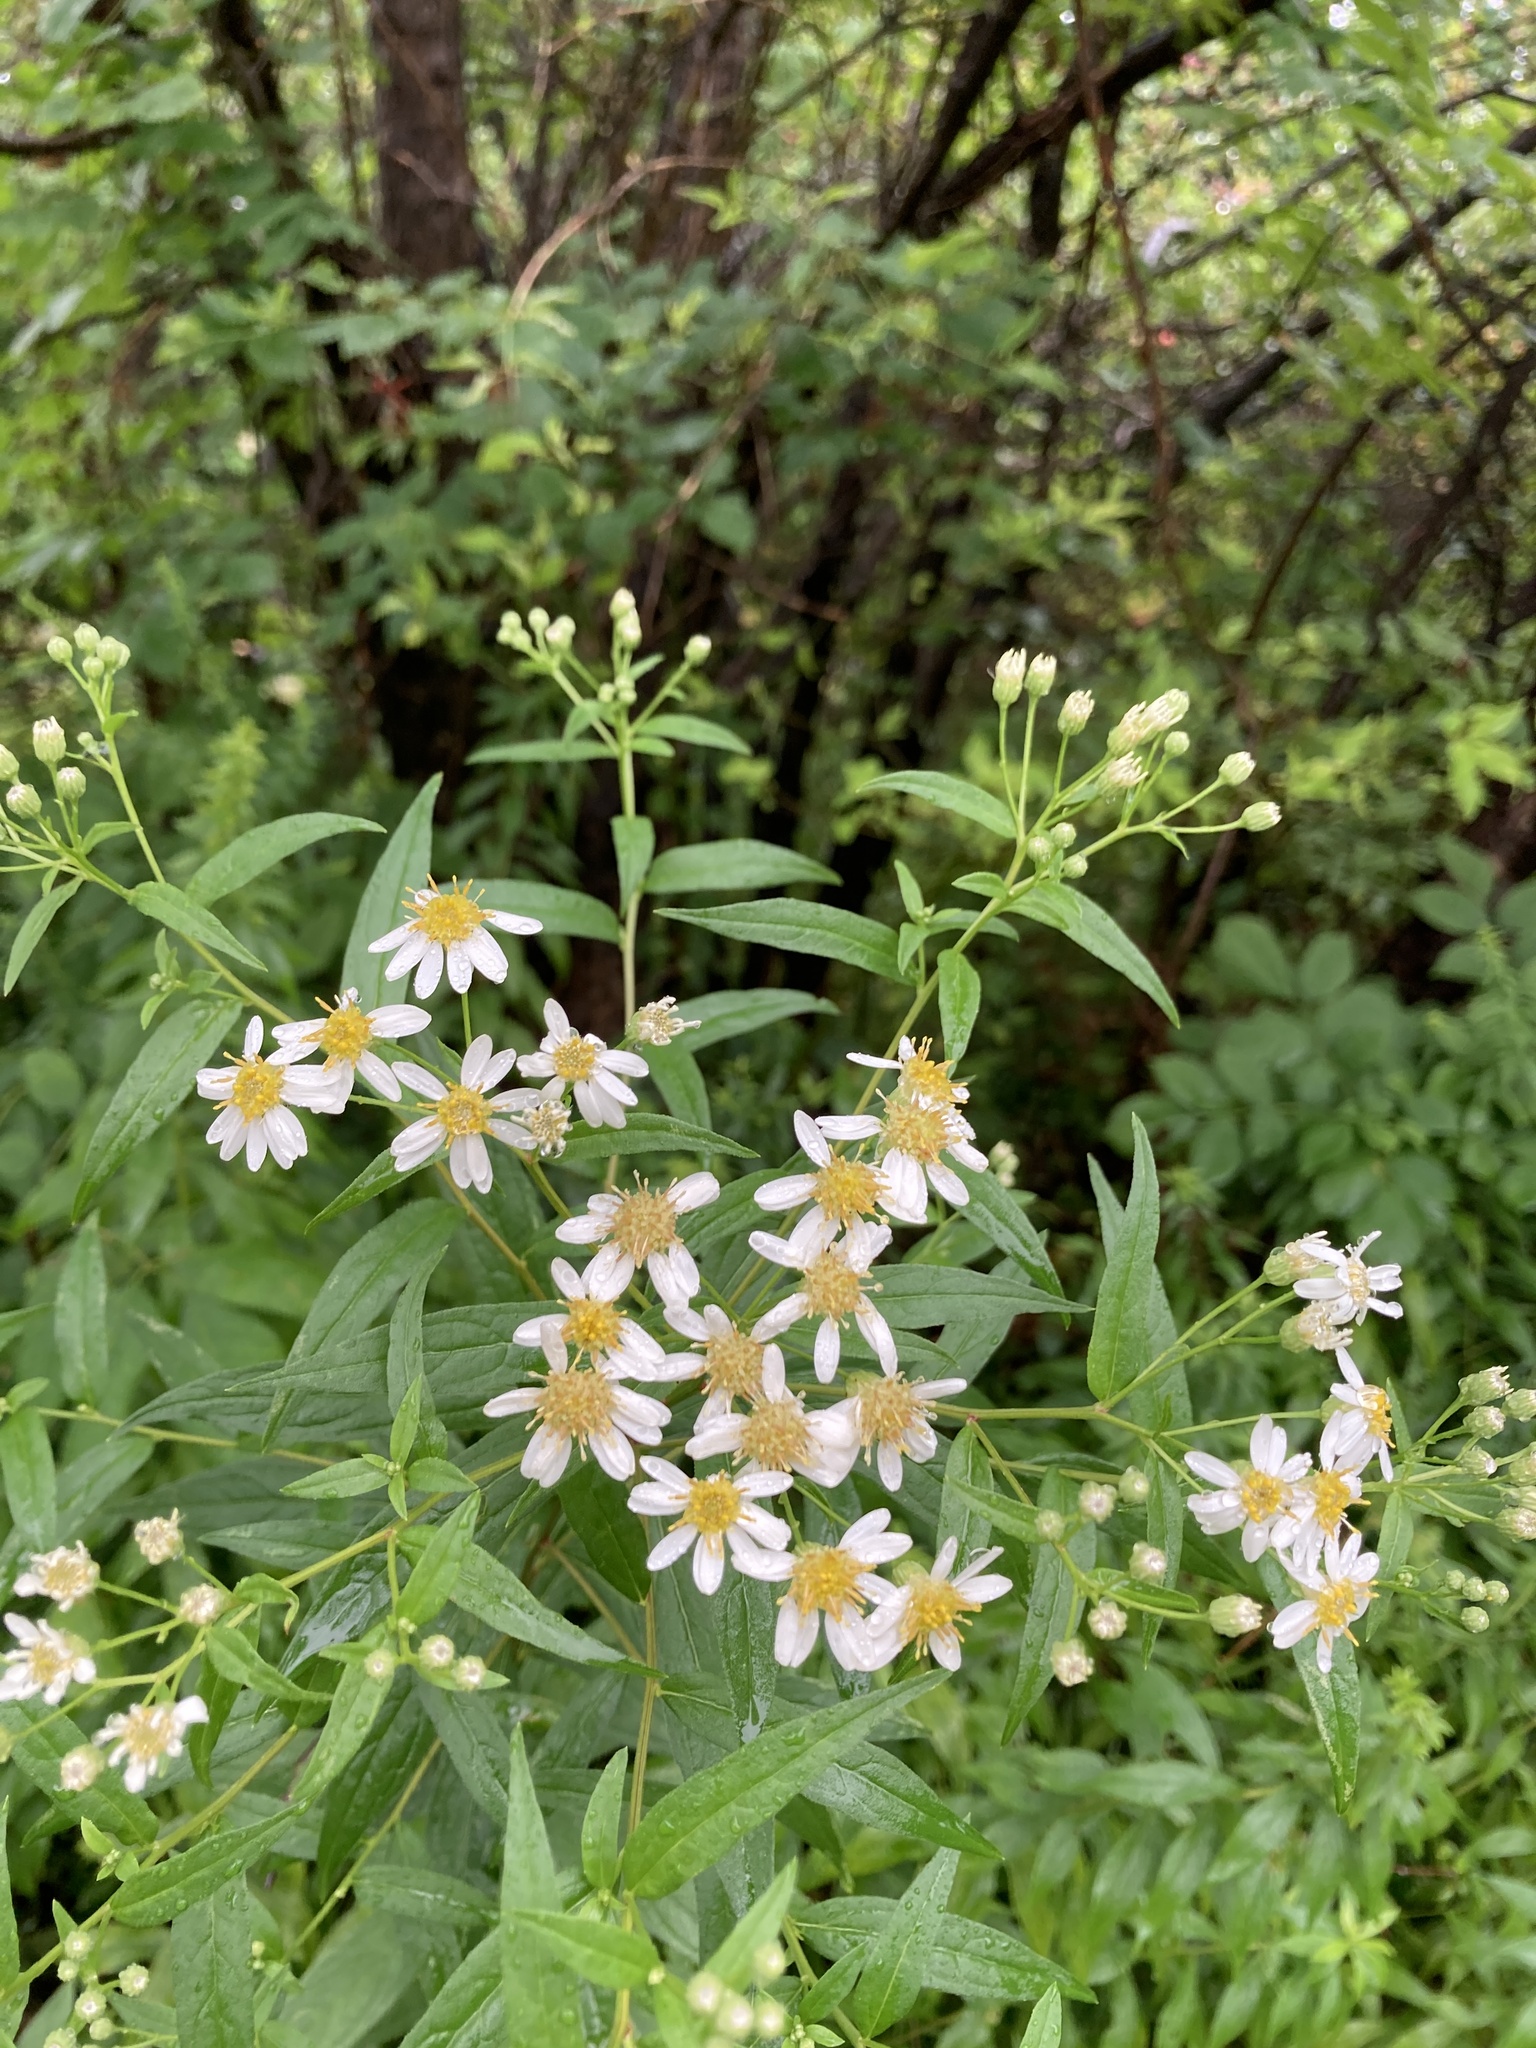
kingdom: Plantae
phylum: Tracheophyta
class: Magnoliopsida
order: Asterales
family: Asteraceae
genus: Doellingeria
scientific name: Doellingeria umbellata
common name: Flat-top white aster
